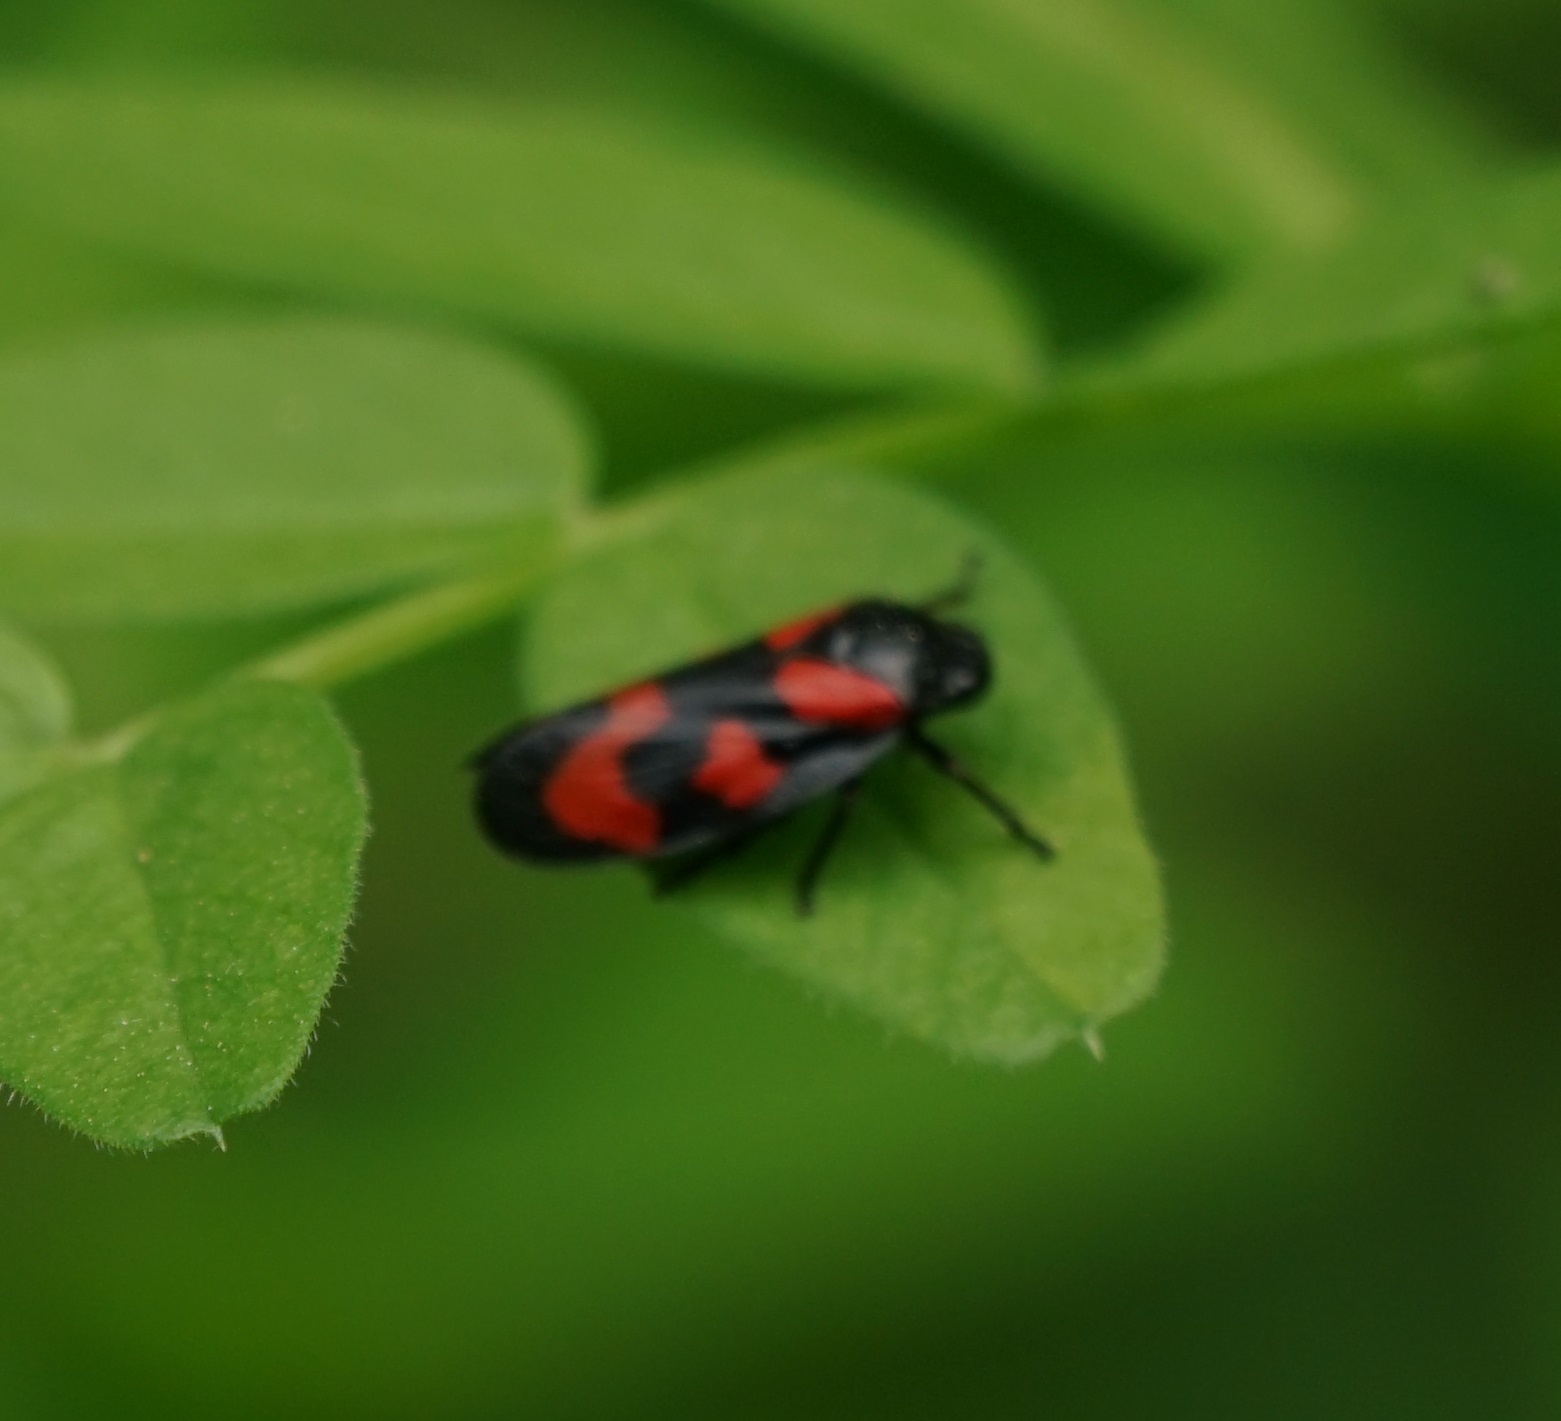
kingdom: Animalia
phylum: Arthropoda
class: Insecta
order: Hemiptera
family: Cercopidae
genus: Cercopis
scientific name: Cercopis vulnerata
